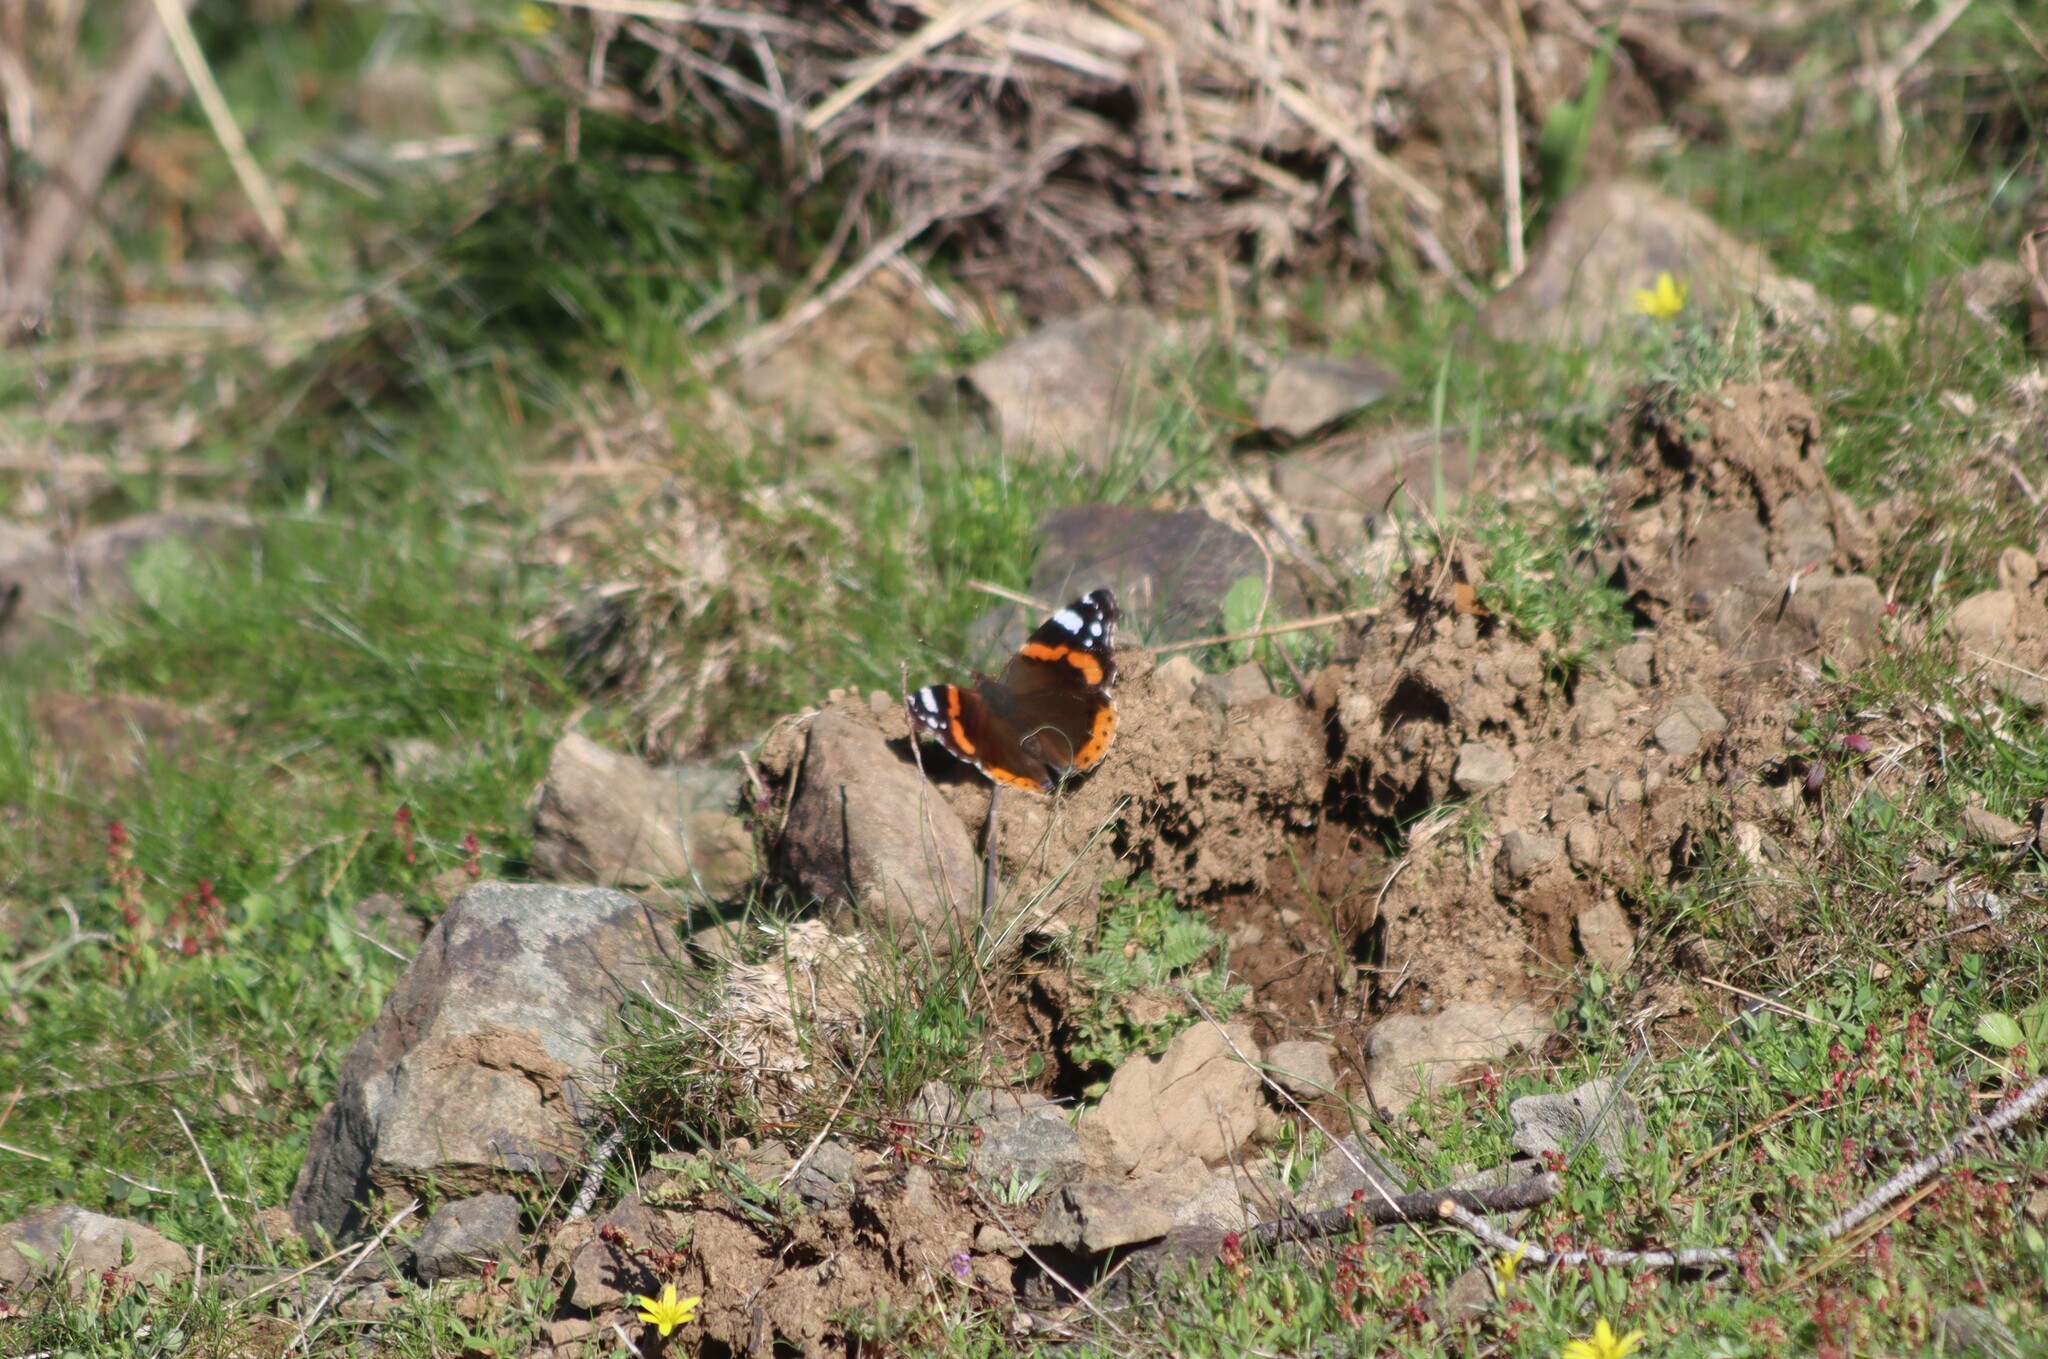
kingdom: Animalia
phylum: Arthropoda
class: Insecta
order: Lepidoptera
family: Nymphalidae
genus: Vanessa
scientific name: Vanessa atalanta
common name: Red admiral
